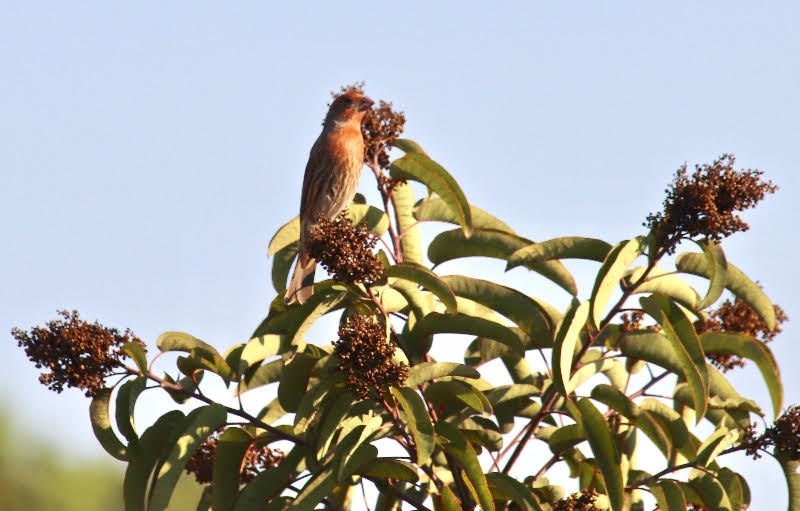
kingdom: Animalia
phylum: Chordata
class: Aves
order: Passeriformes
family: Fringillidae
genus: Haemorhous
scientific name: Haemorhous mexicanus
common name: House finch
